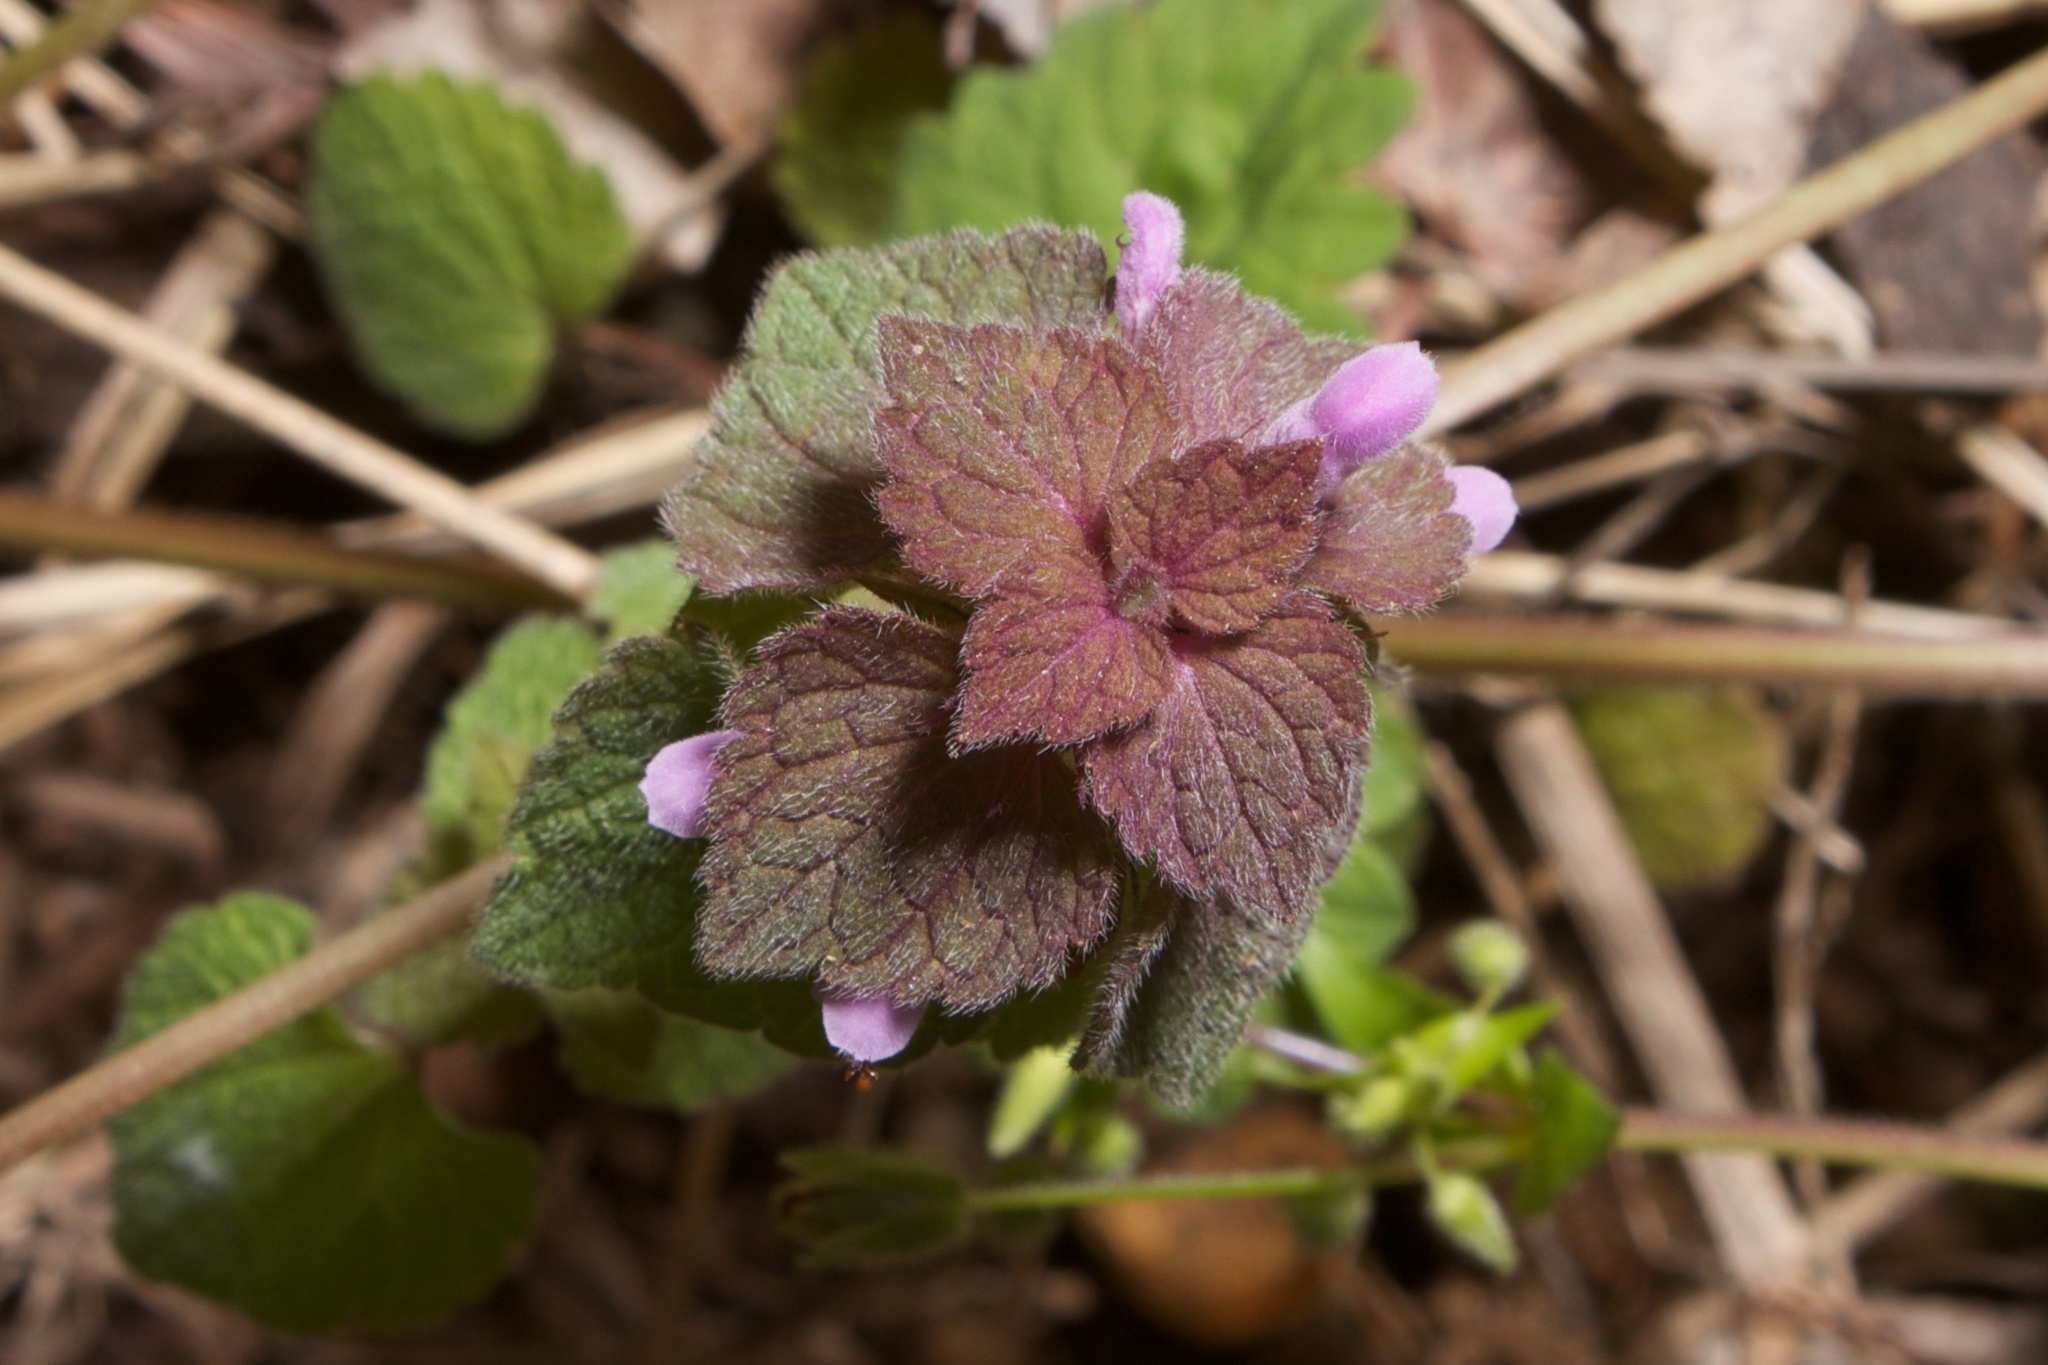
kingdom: Plantae
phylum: Tracheophyta
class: Magnoliopsida
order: Lamiales
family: Lamiaceae
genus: Lamium
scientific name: Lamium purpureum
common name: Red dead-nettle
